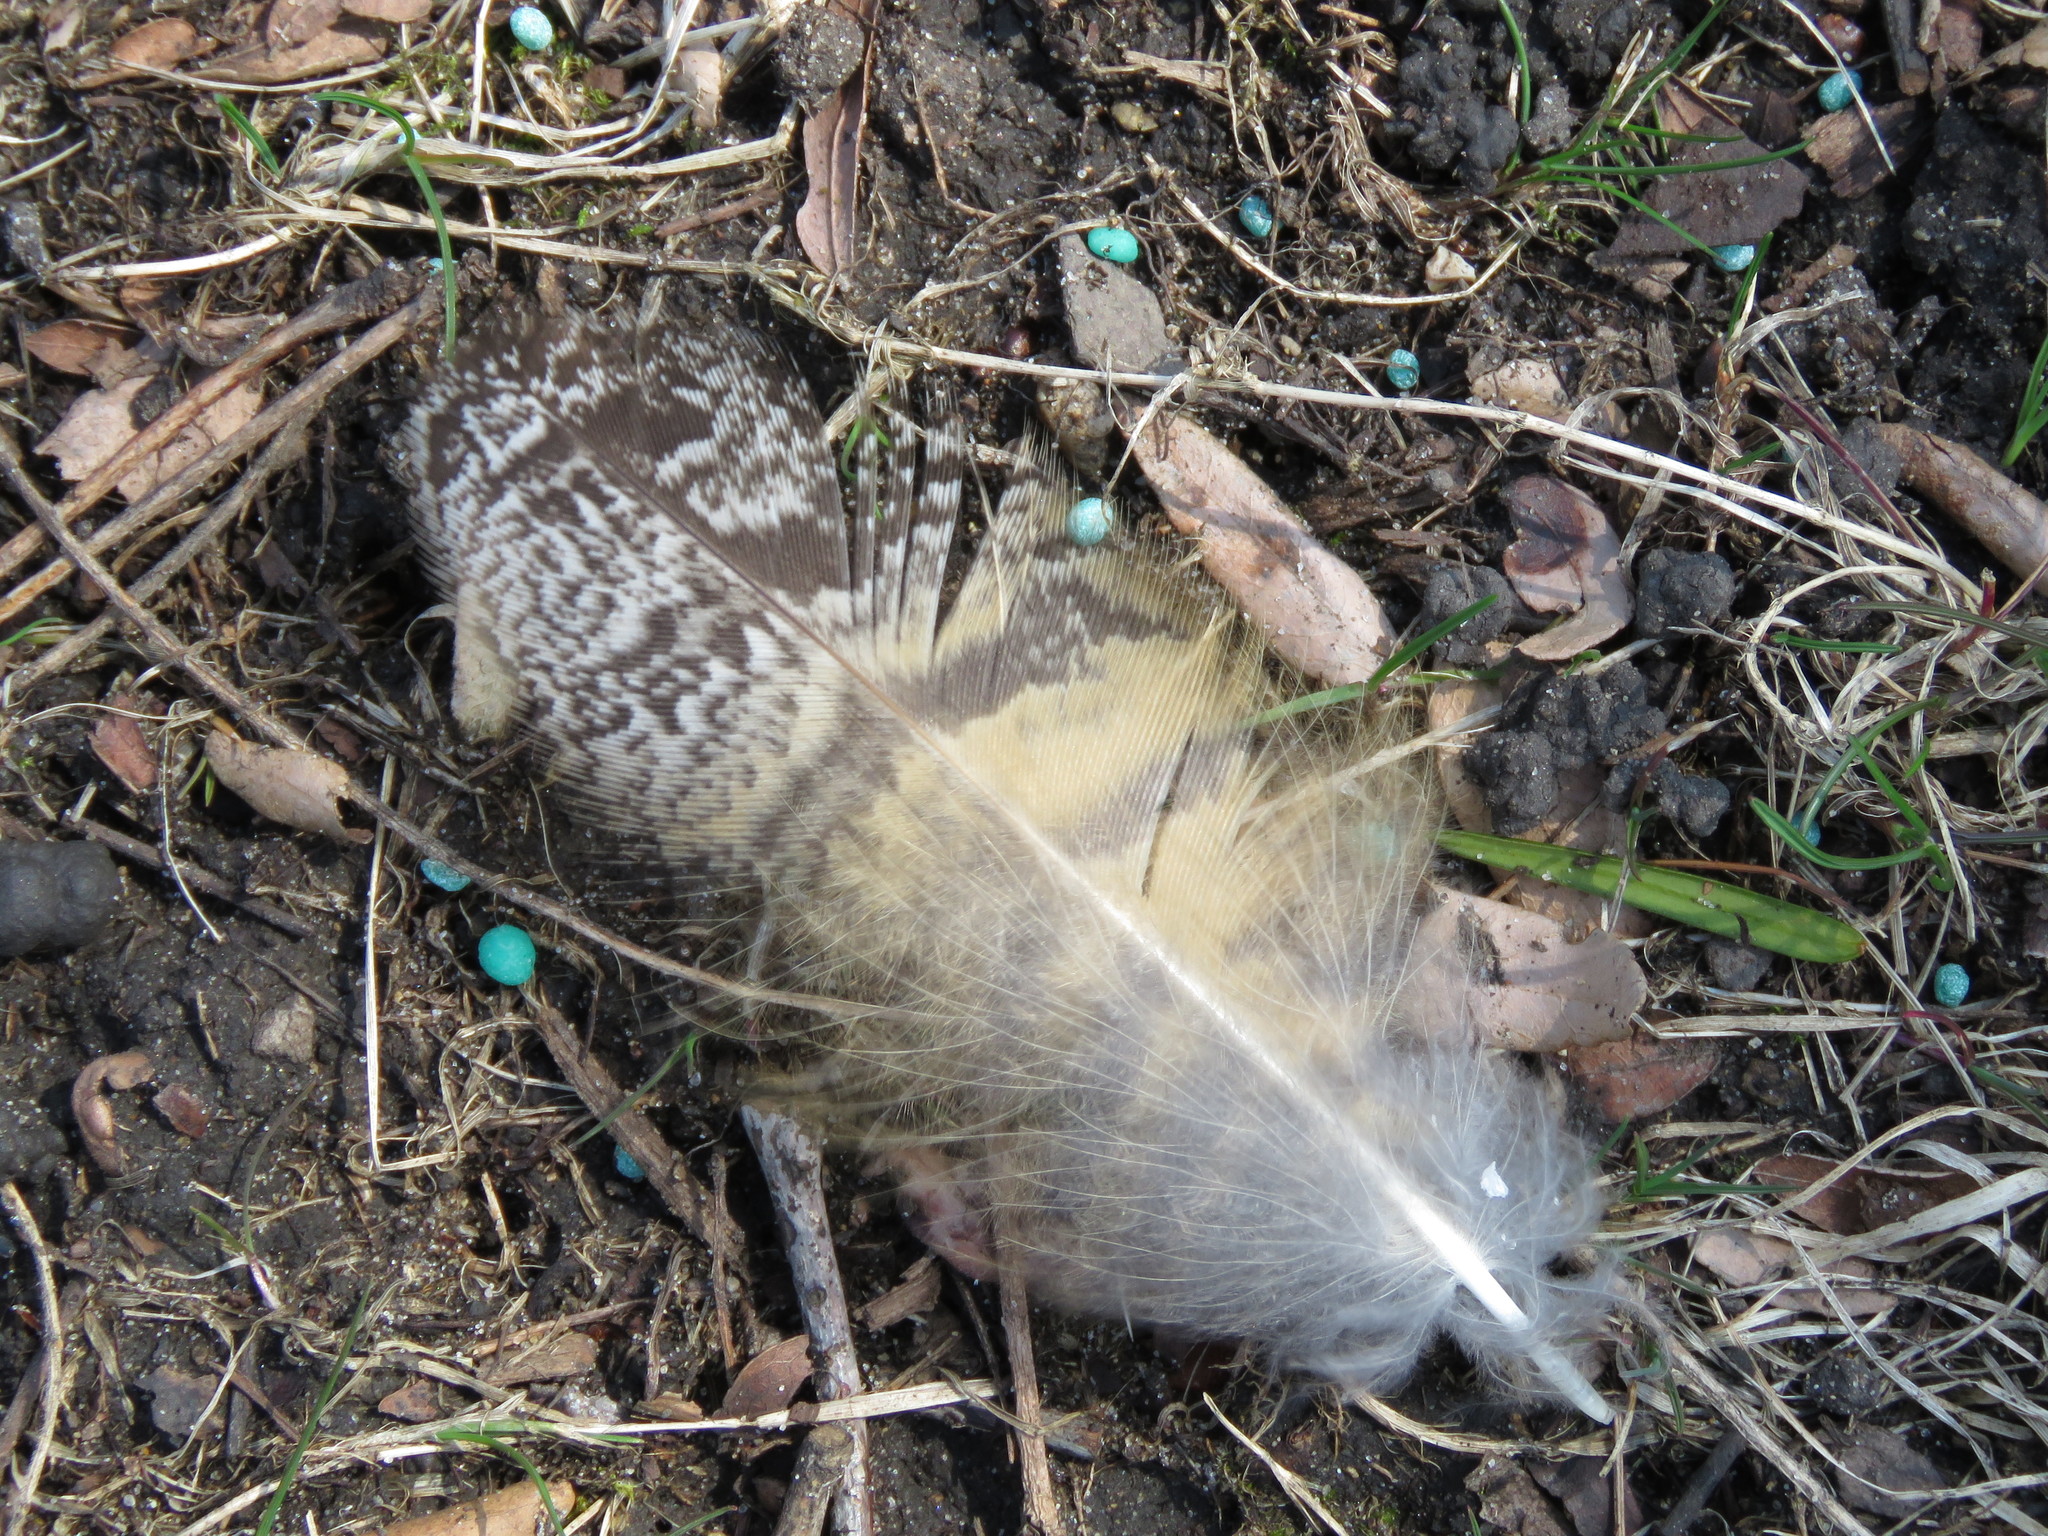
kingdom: Animalia
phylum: Chordata
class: Aves
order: Strigiformes
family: Strigidae
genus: Bubo
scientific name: Bubo virginianus
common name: Great horned owl
